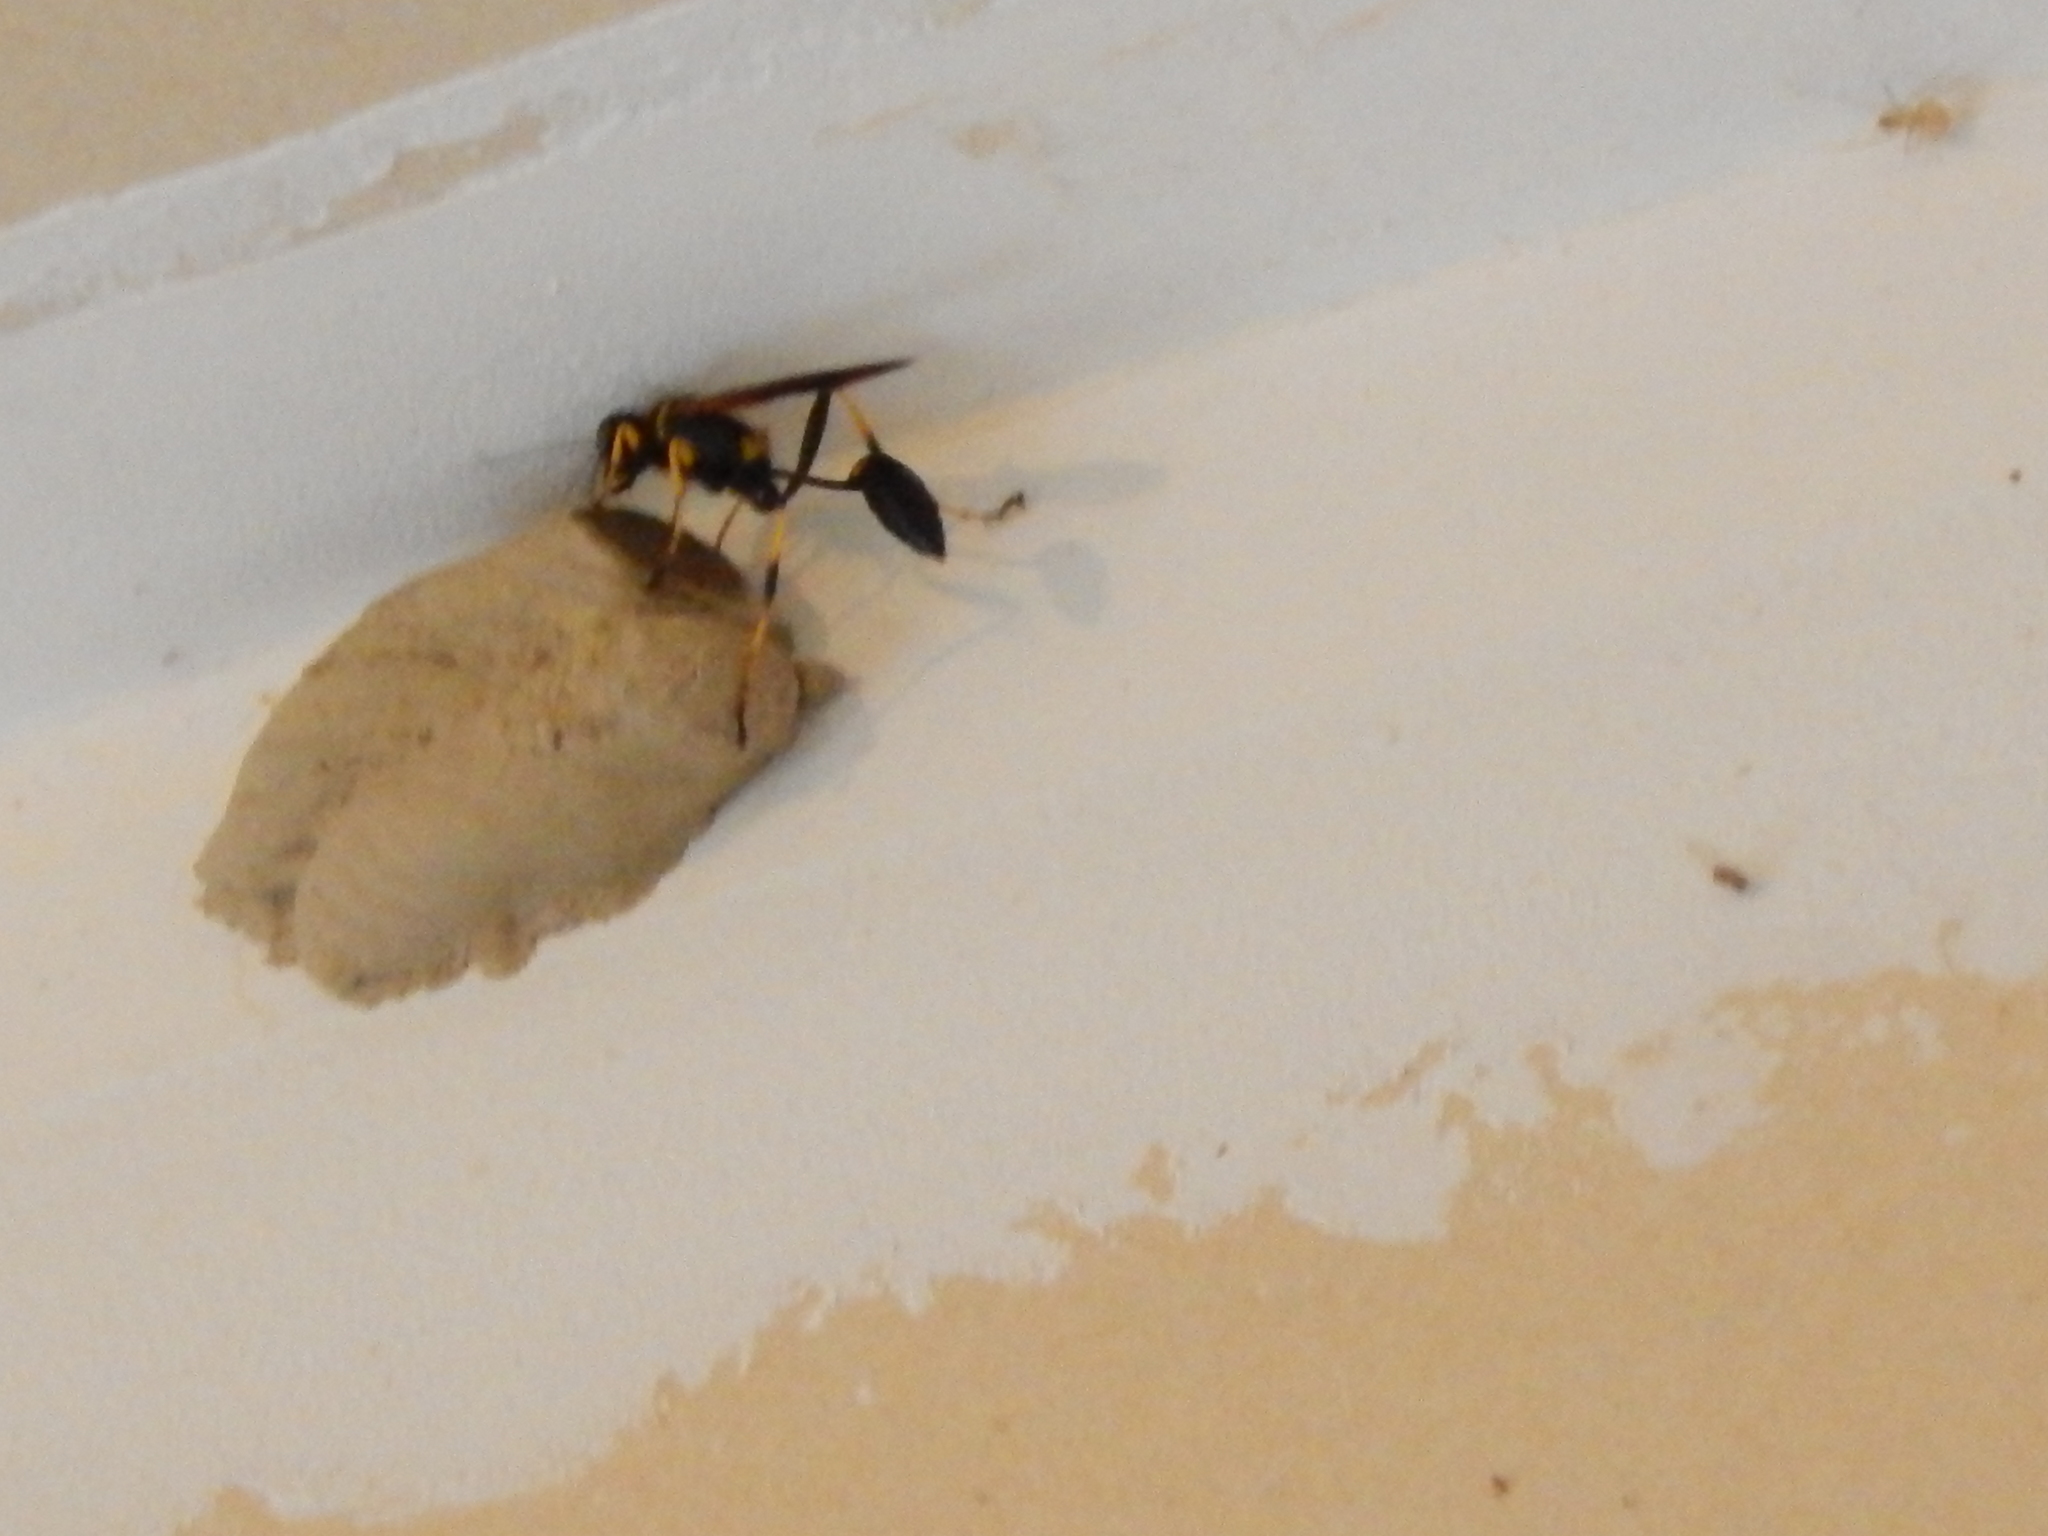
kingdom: Animalia
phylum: Arthropoda
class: Insecta
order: Hymenoptera
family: Sphecidae
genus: Sceliphron
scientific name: Sceliphron caementarium
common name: Mud dauber
